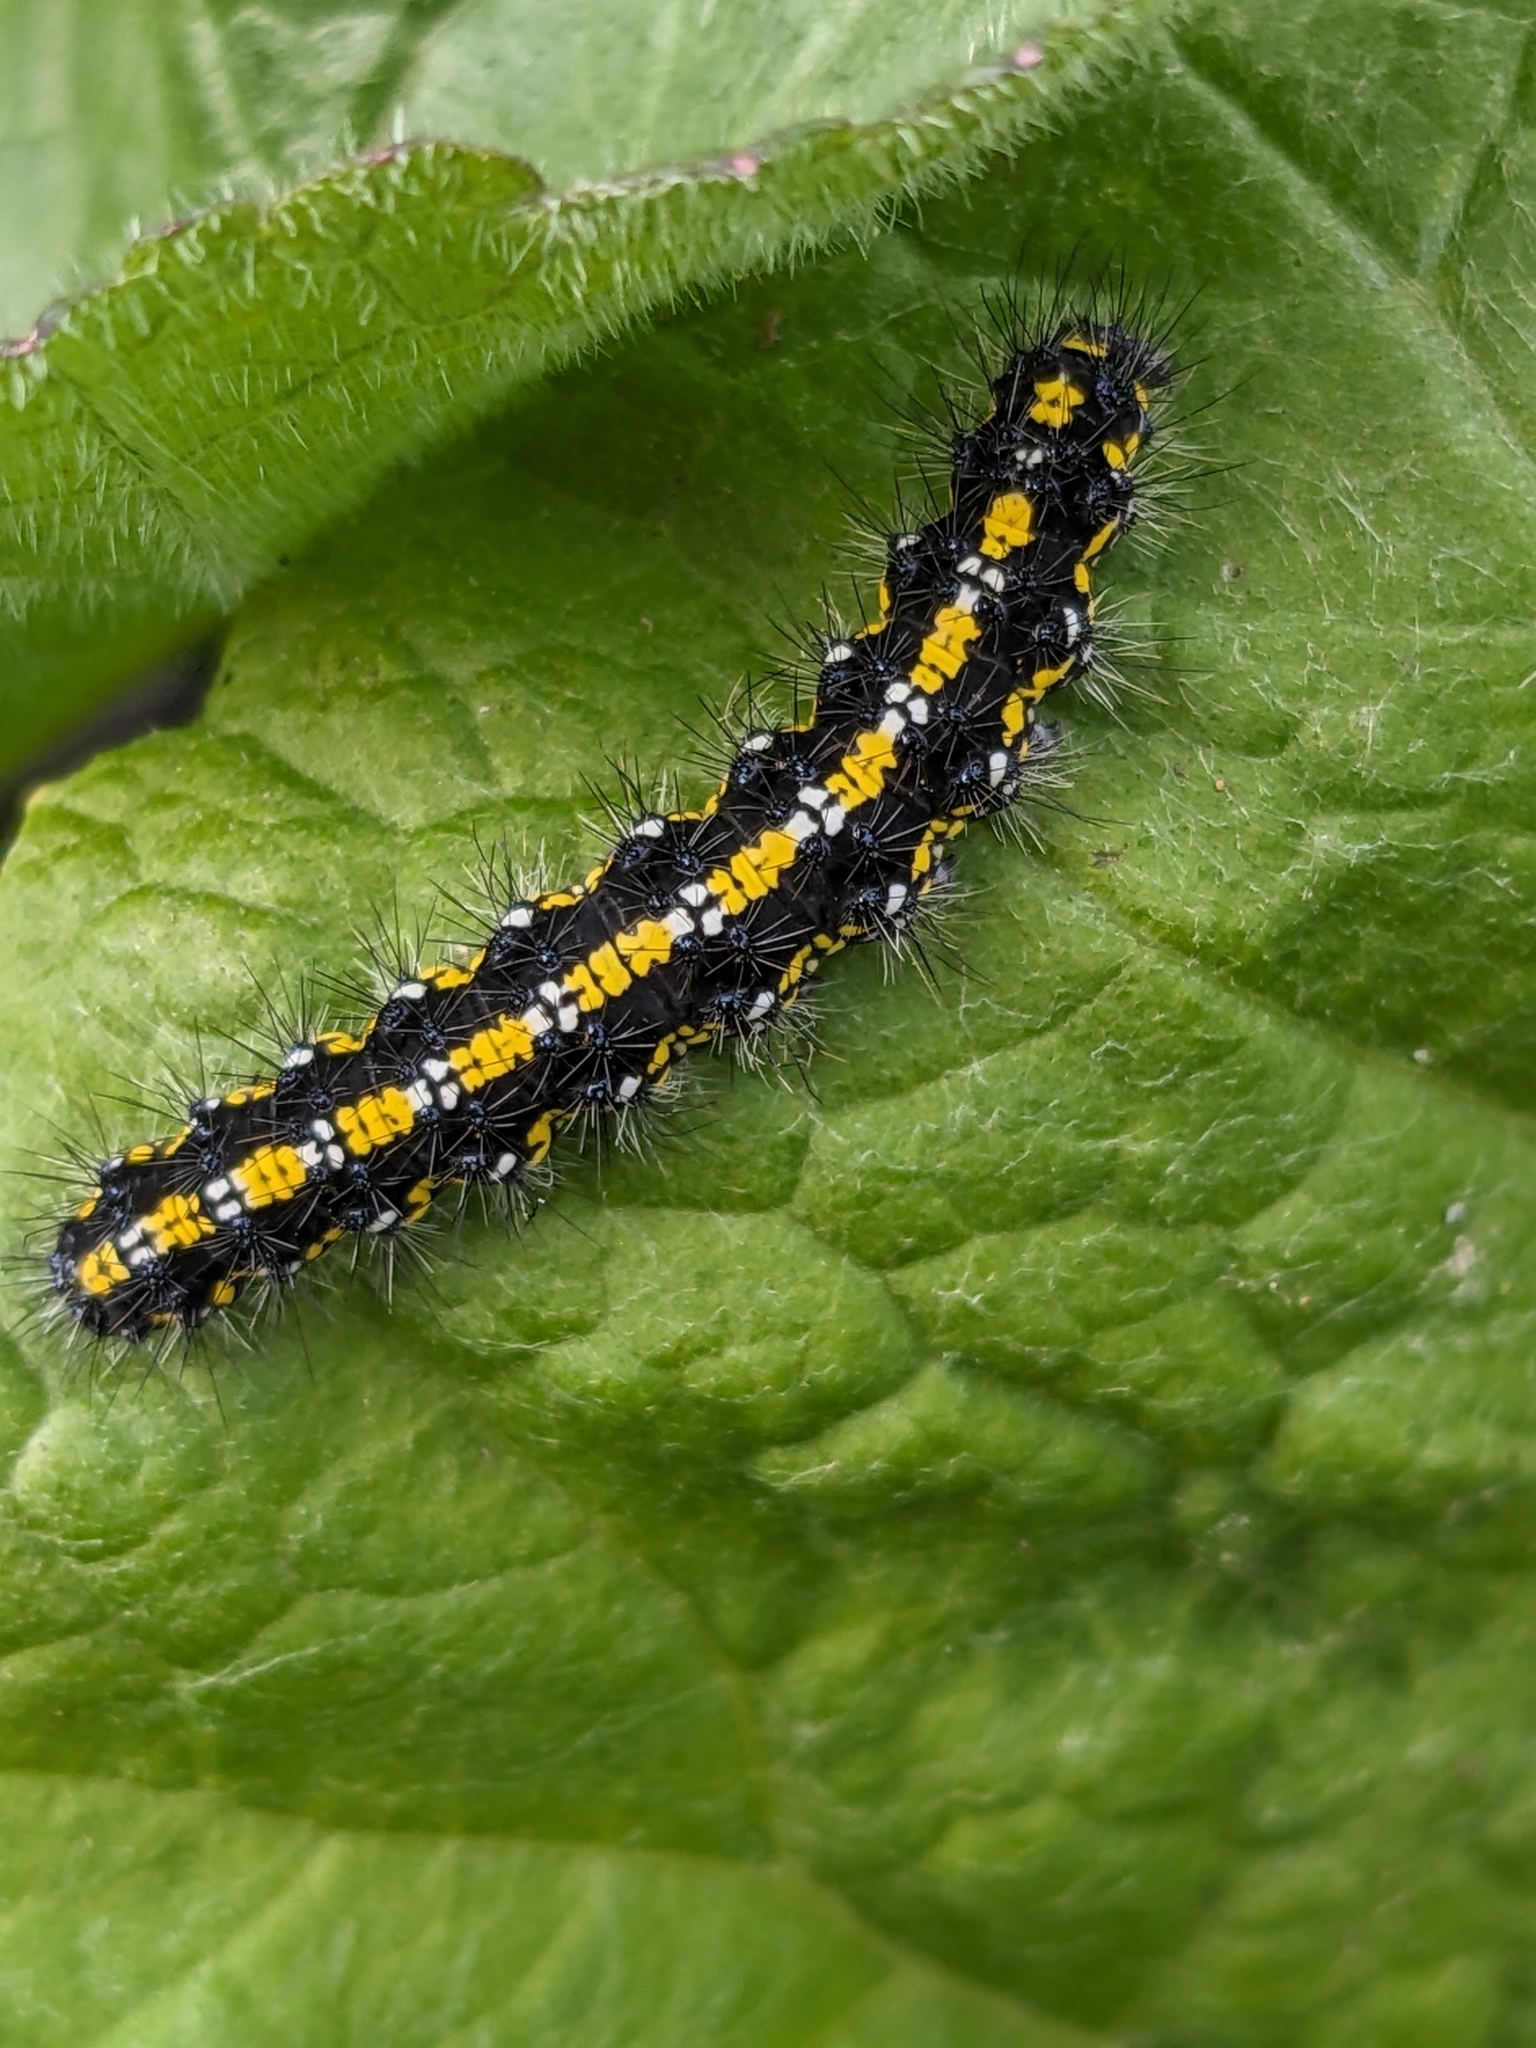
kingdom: Animalia
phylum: Arthropoda
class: Insecta
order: Lepidoptera
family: Erebidae
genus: Callimorpha
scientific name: Callimorpha dominula
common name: Scarlet tiger
